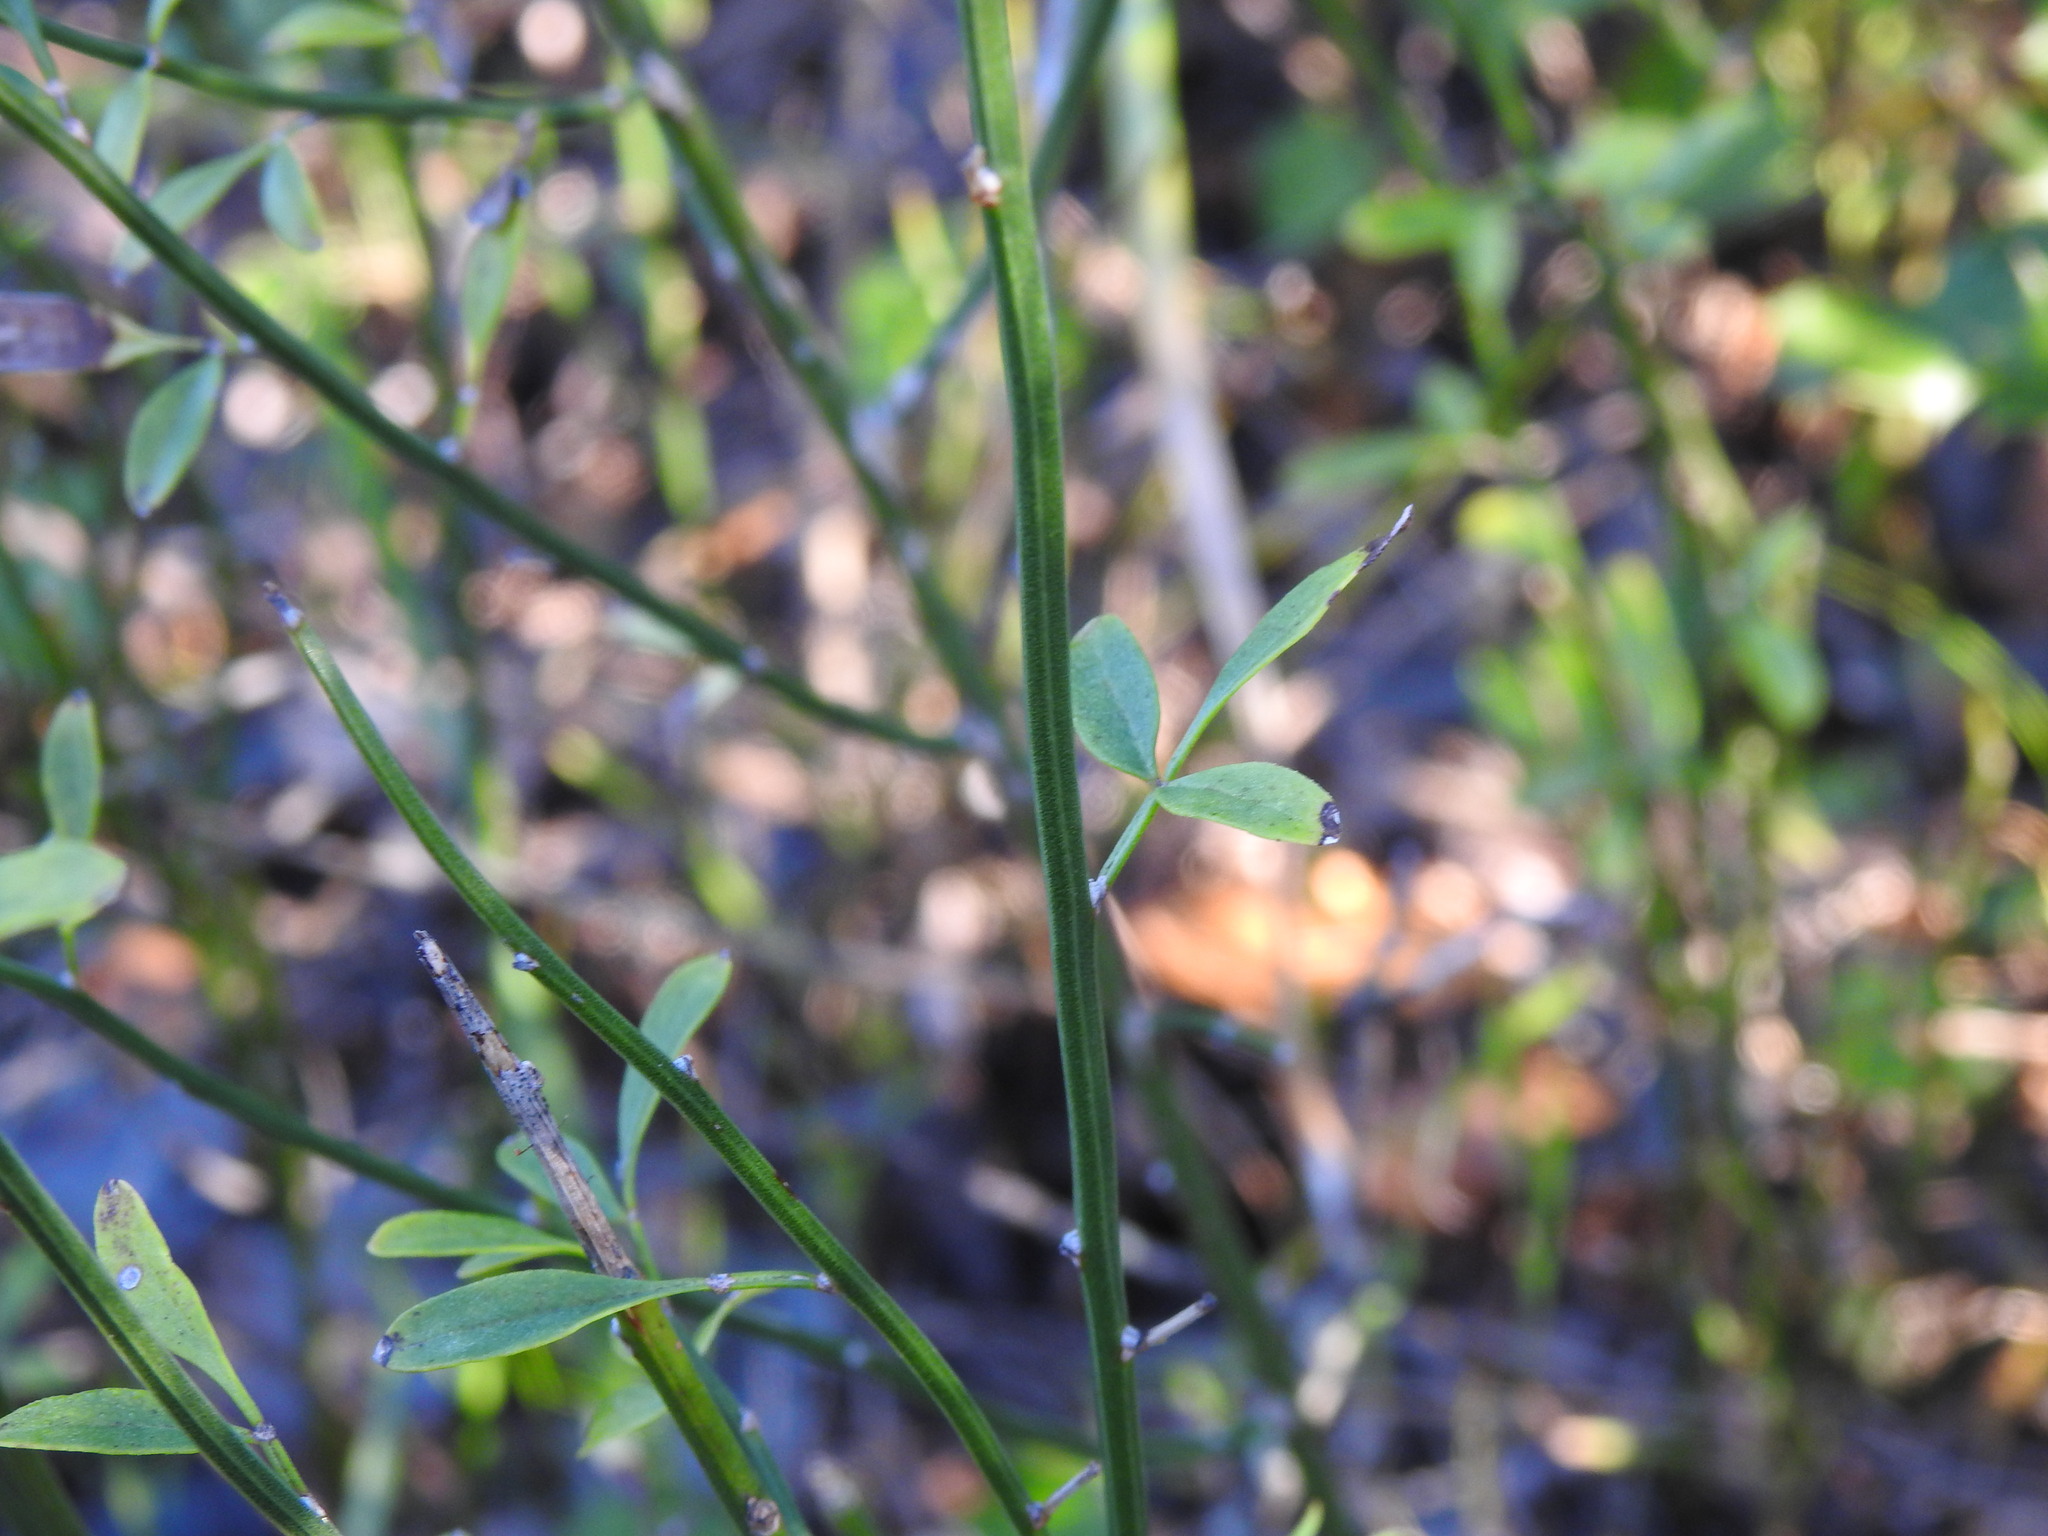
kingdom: Plantae
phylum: Tracheophyta
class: Magnoliopsida
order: Lamiales
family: Oleaceae
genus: Chrysojasminum
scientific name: Chrysojasminum fruticans
